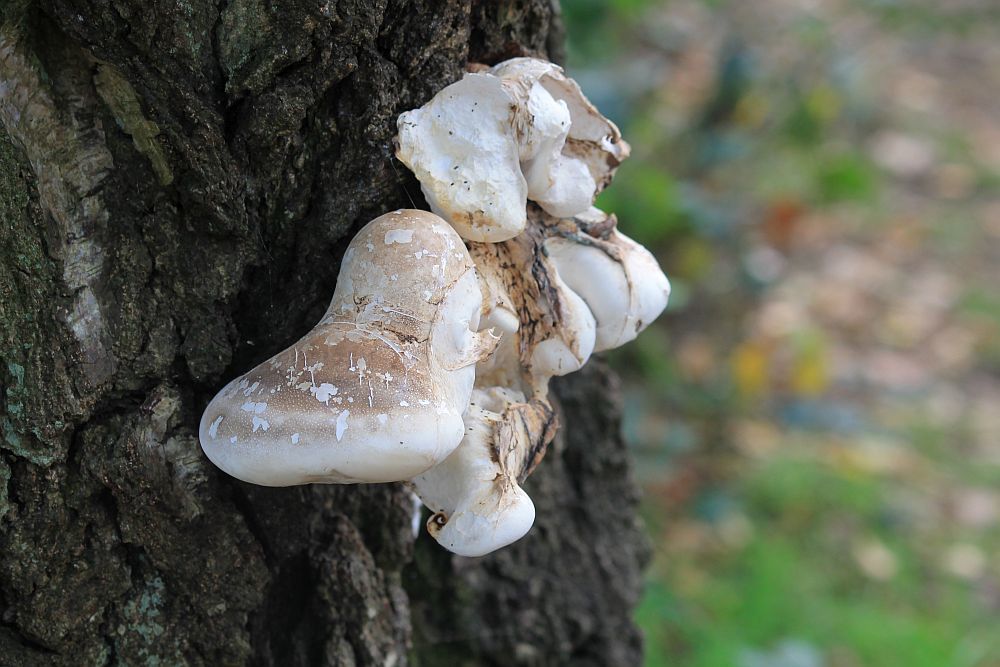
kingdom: Fungi
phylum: Basidiomycota
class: Agaricomycetes
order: Polyporales
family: Fomitopsidaceae
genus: Fomitopsis
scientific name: Fomitopsis betulina
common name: Birch polypore
